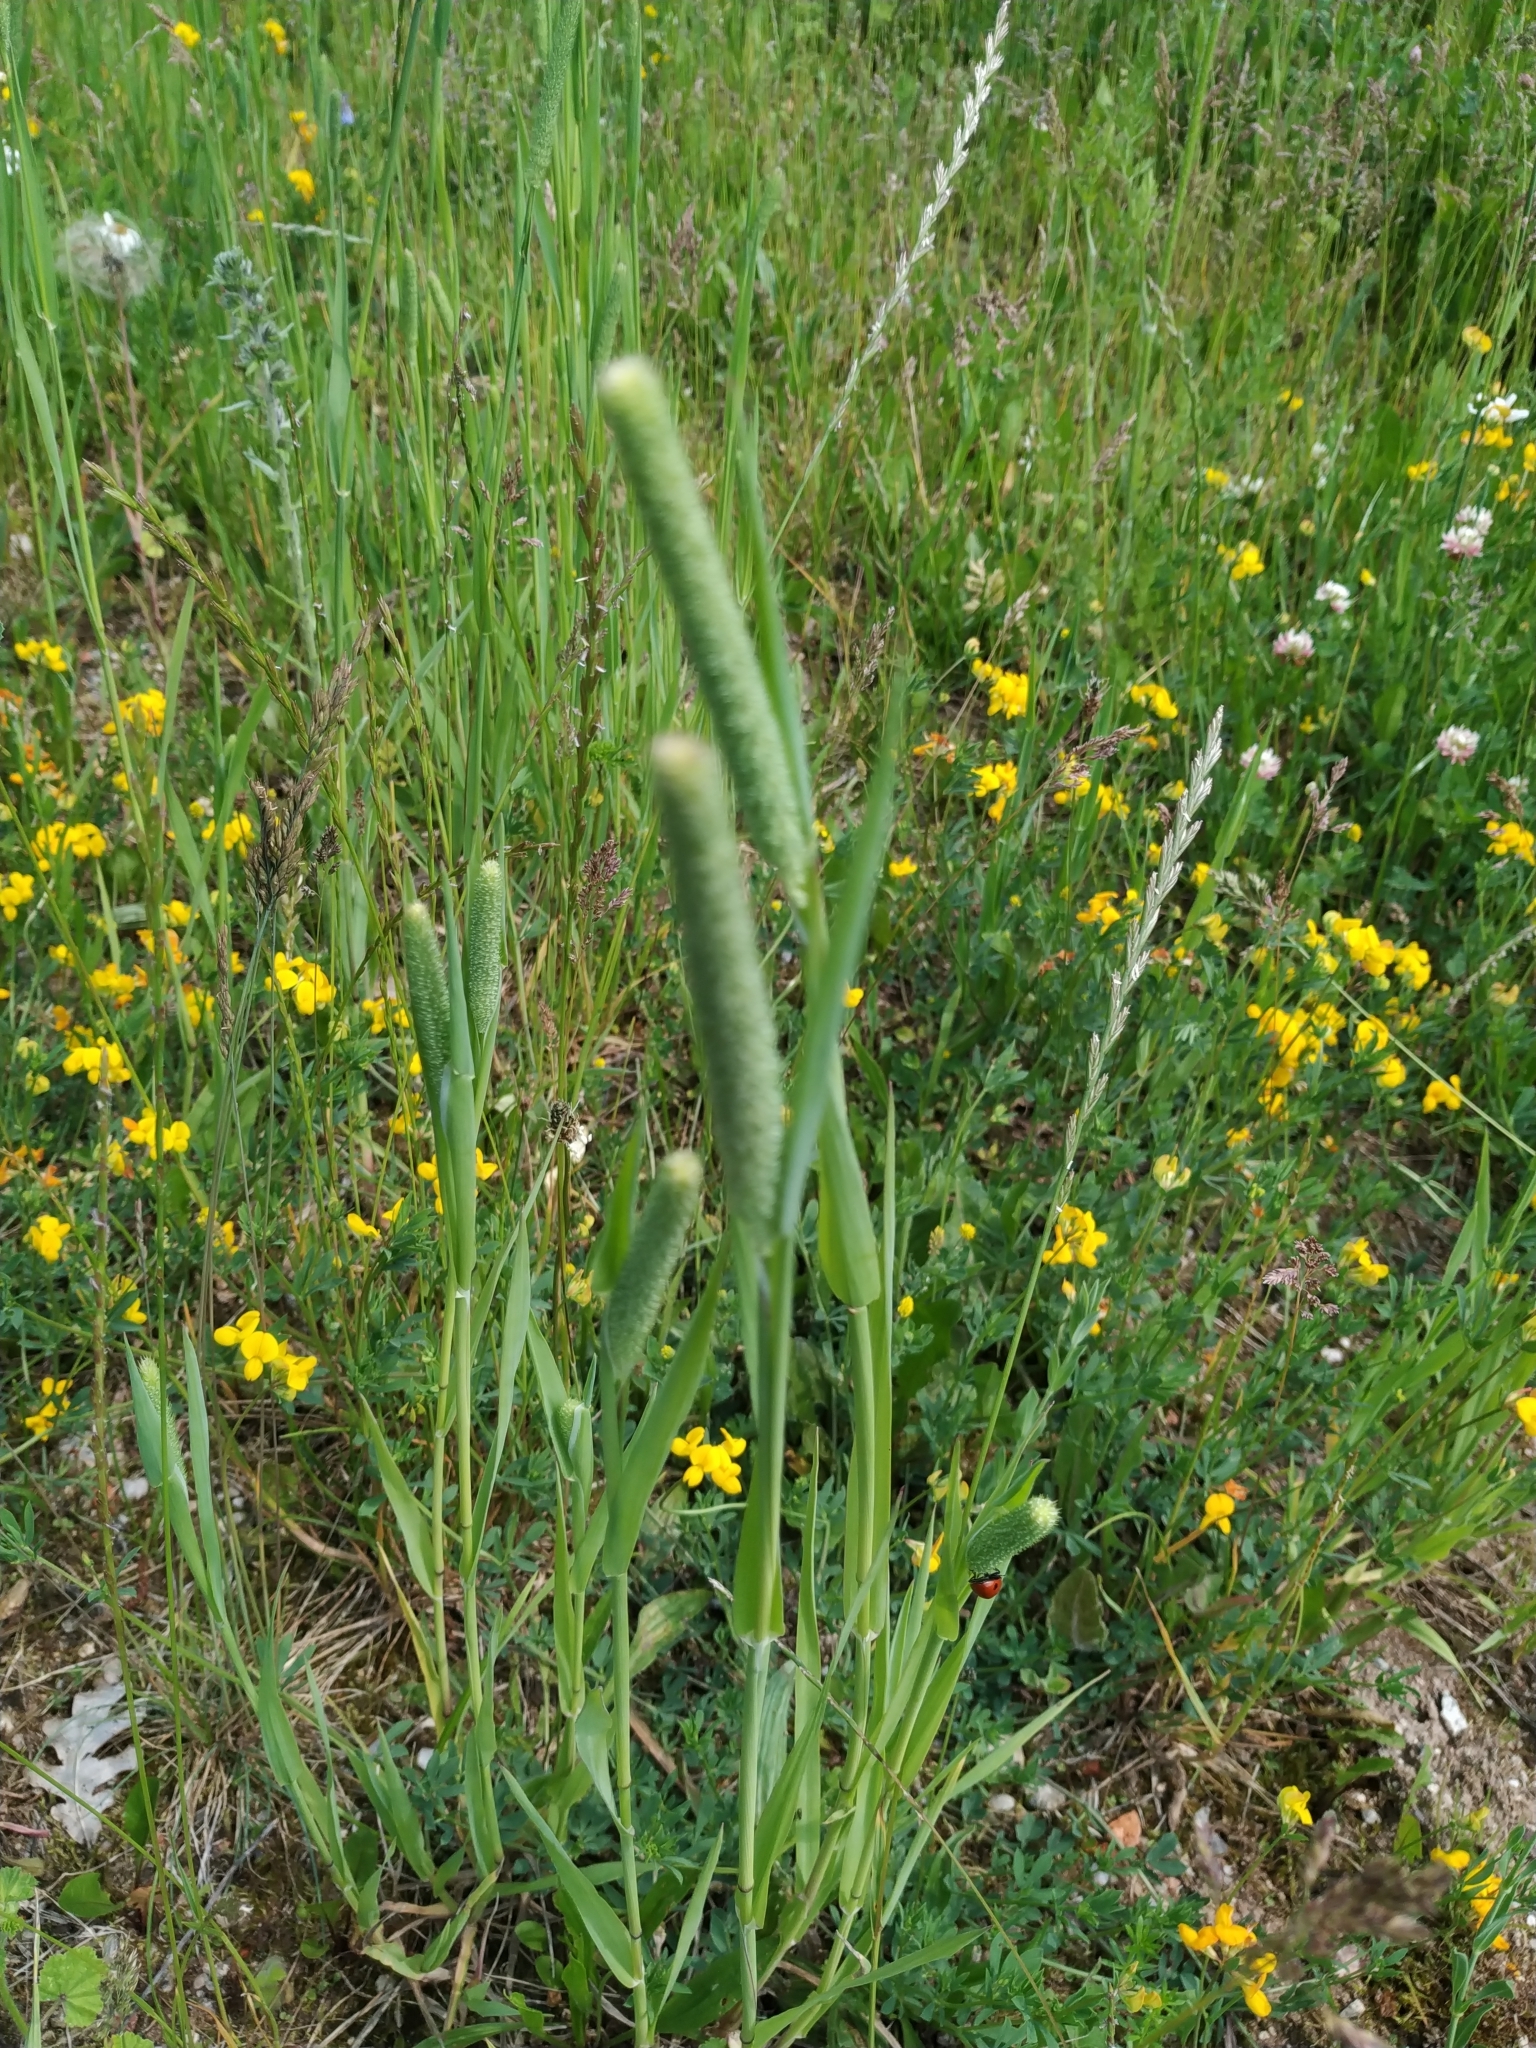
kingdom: Plantae
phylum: Tracheophyta
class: Liliopsida
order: Poales
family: Poaceae
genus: Phleum
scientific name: Phleum pratense
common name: Timothy grass
